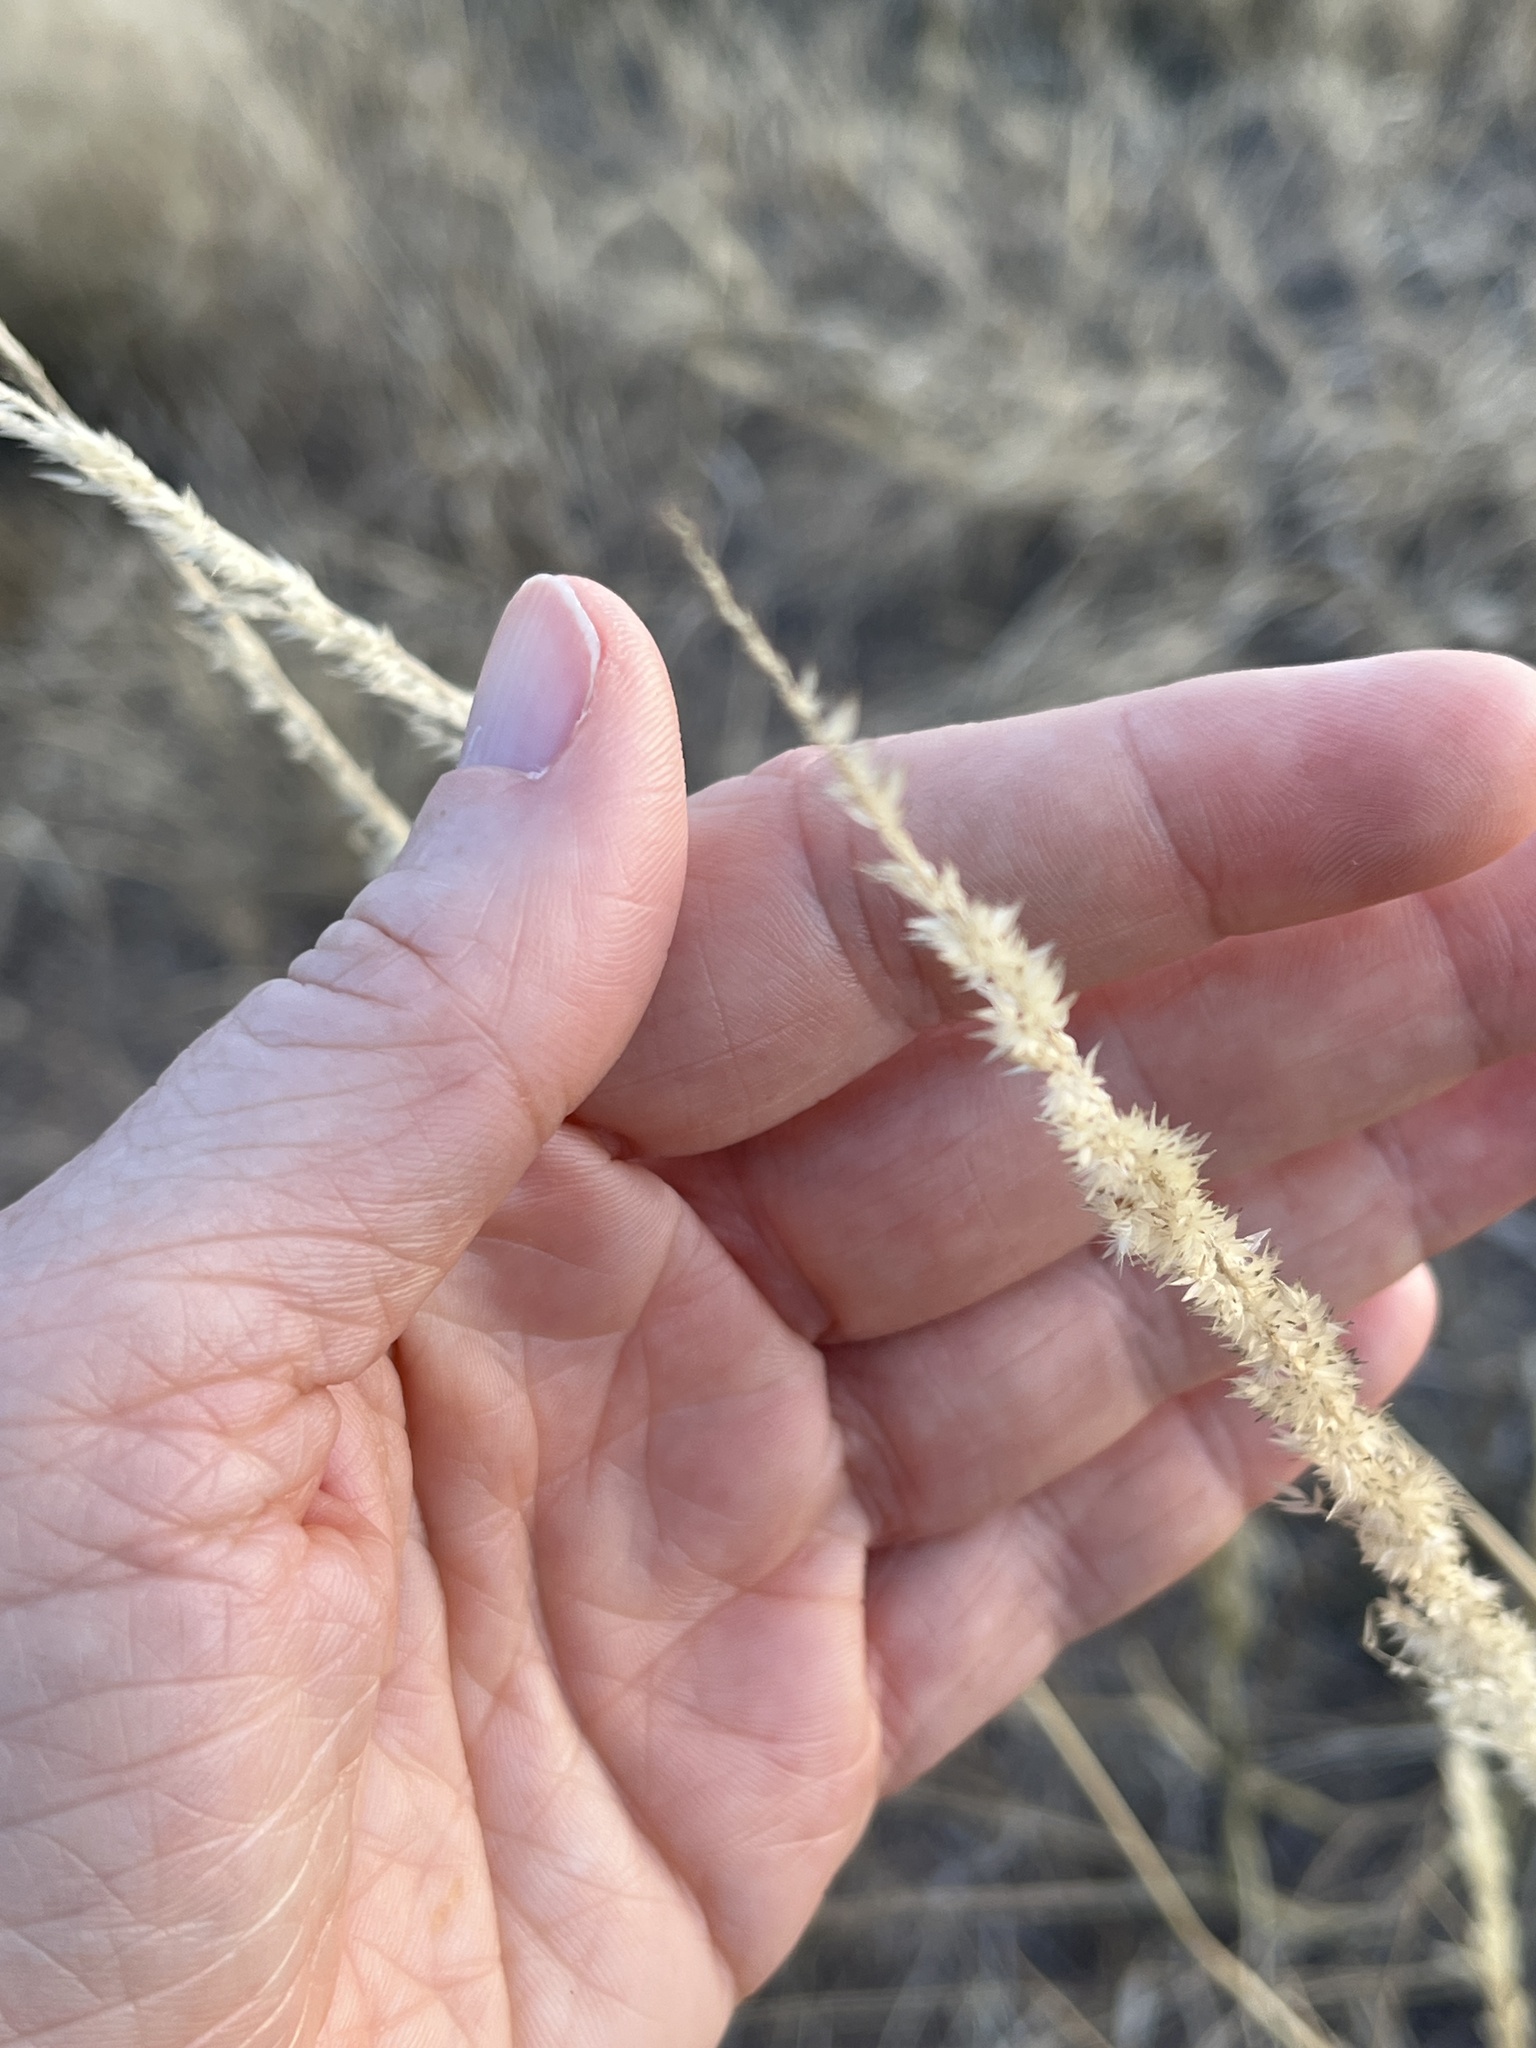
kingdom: Plantae
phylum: Tracheophyta
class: Liliopsida
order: Poales
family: Poaceae
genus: Enneapogon
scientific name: Enneapogon cenchroides
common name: Soft feather pappusgrass
